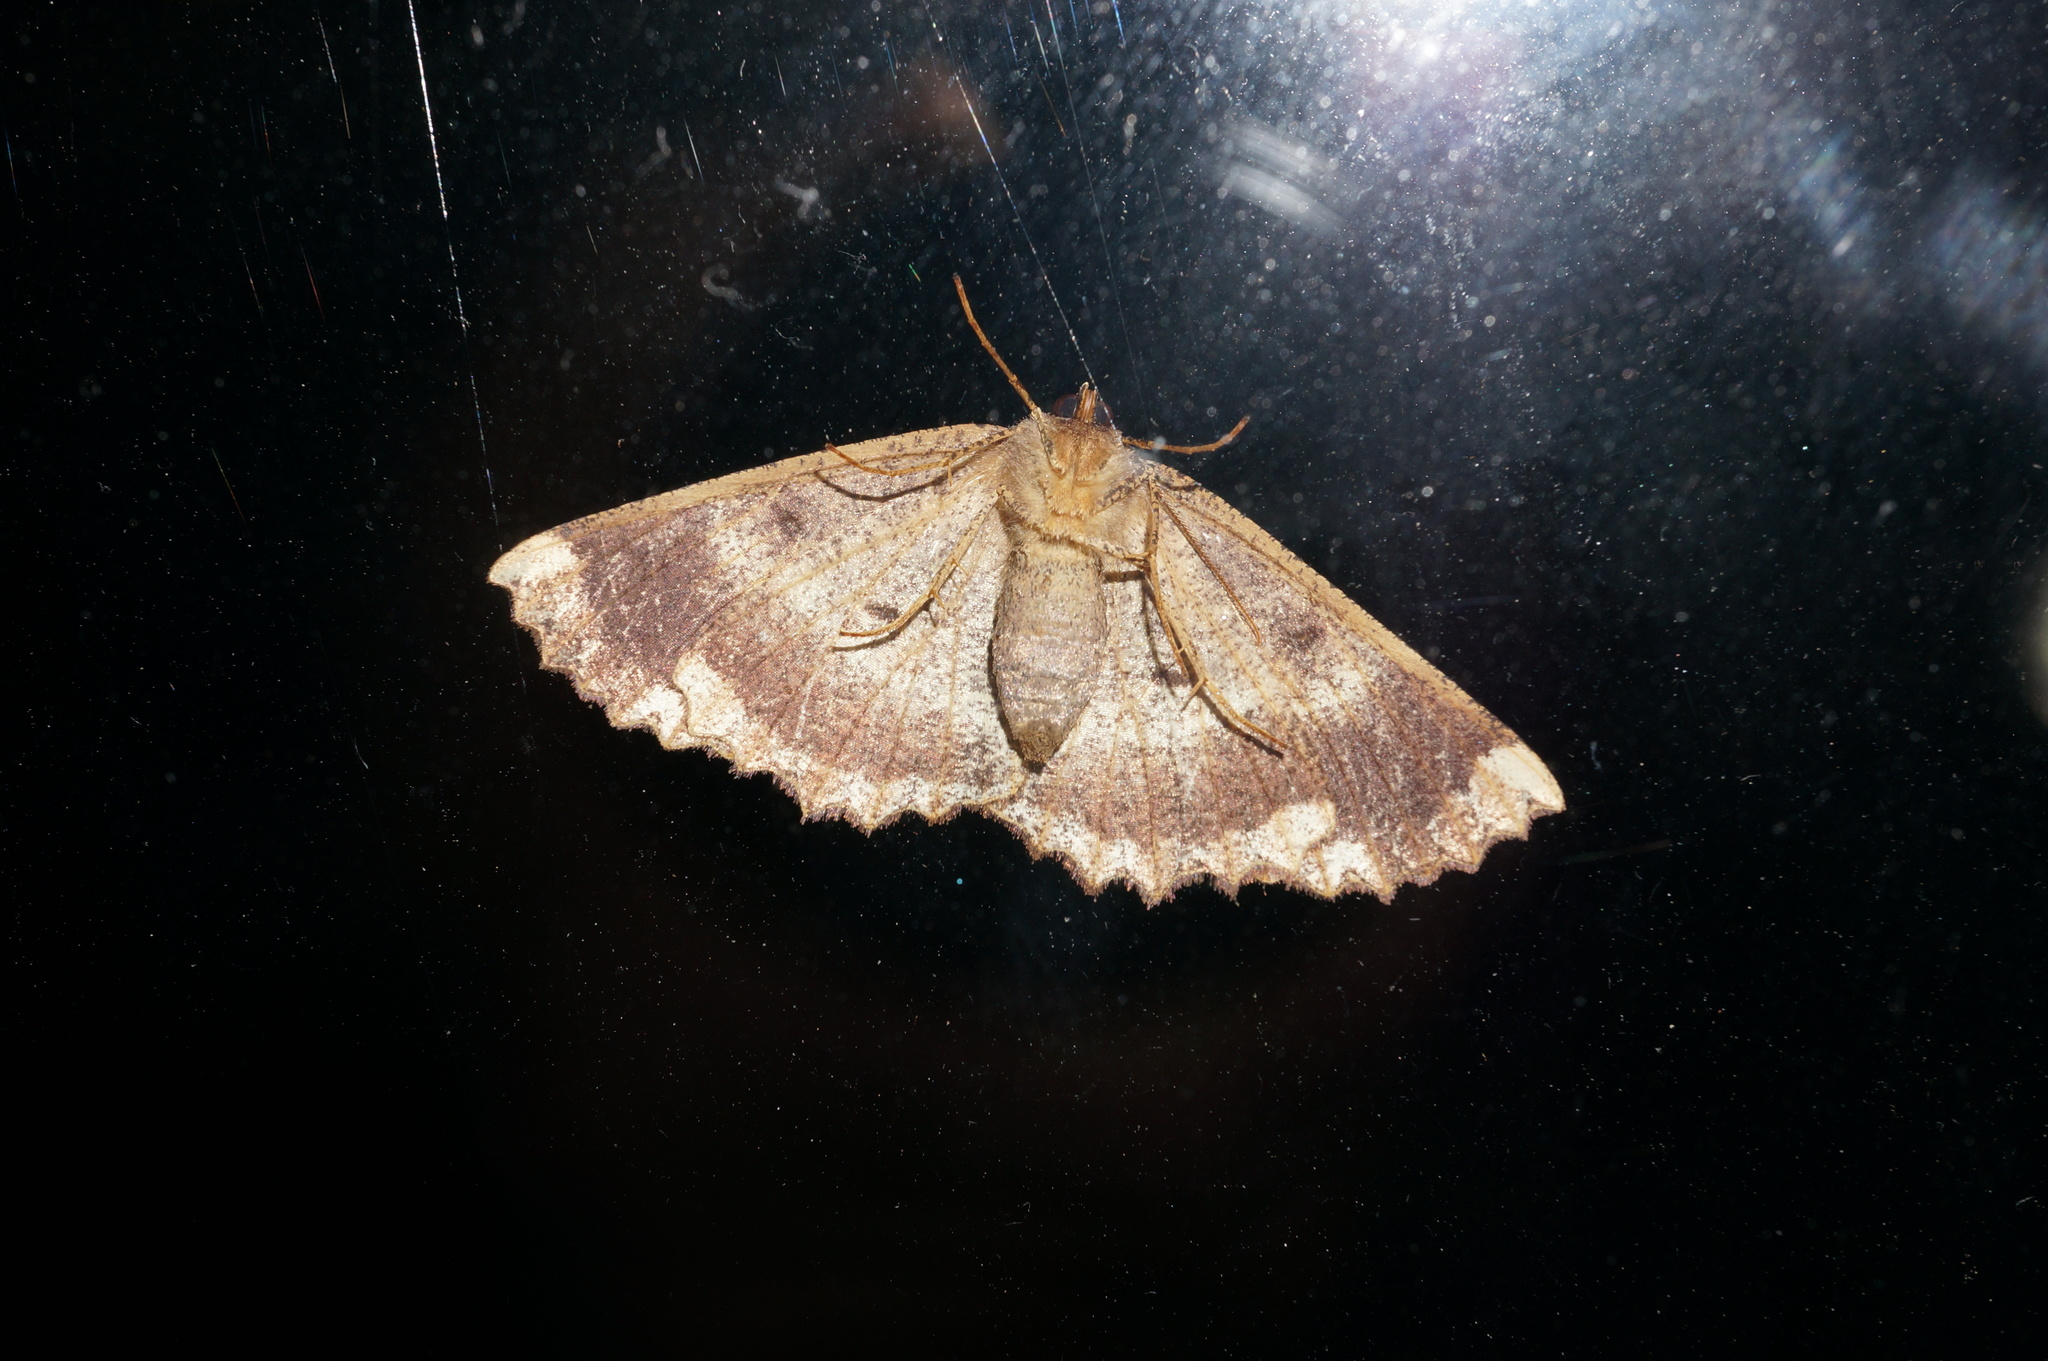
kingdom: Animalia
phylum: Arthropoda
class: Insecta
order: Lepidoptera
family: Geometridae
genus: Gellonia
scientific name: Gellonia dejectaria
